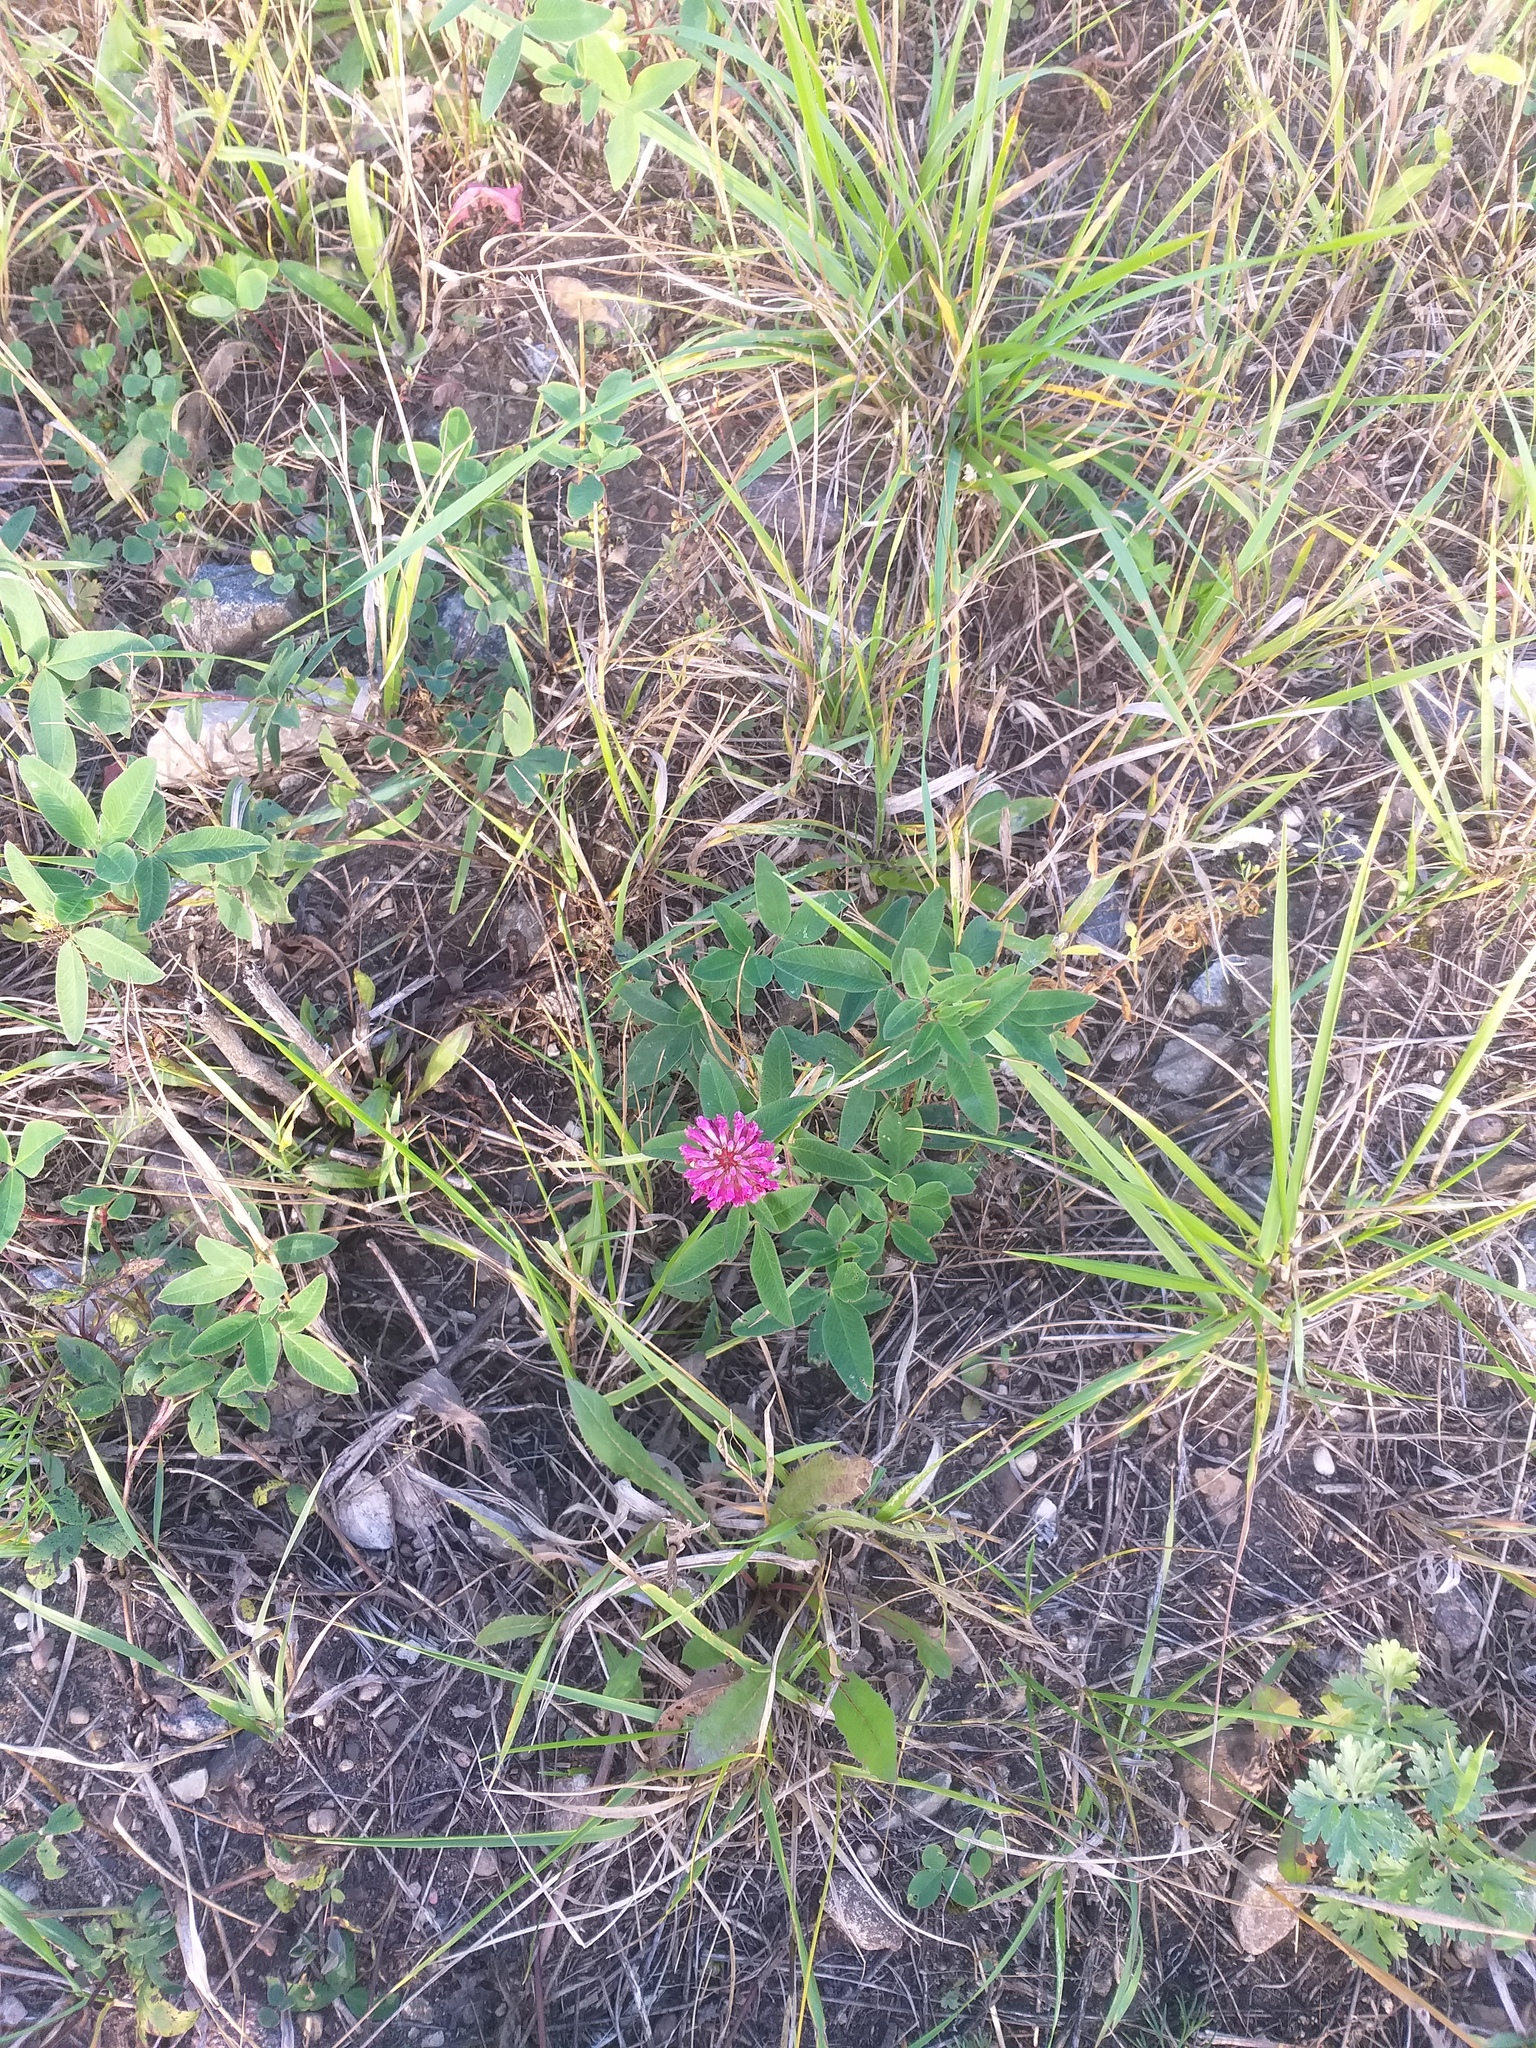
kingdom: Plantae
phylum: Tracheophyta
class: Magnoliopsida
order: Fabales
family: Fabaceae
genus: Trifolium
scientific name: Trifolium medium
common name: Zigzag clover
